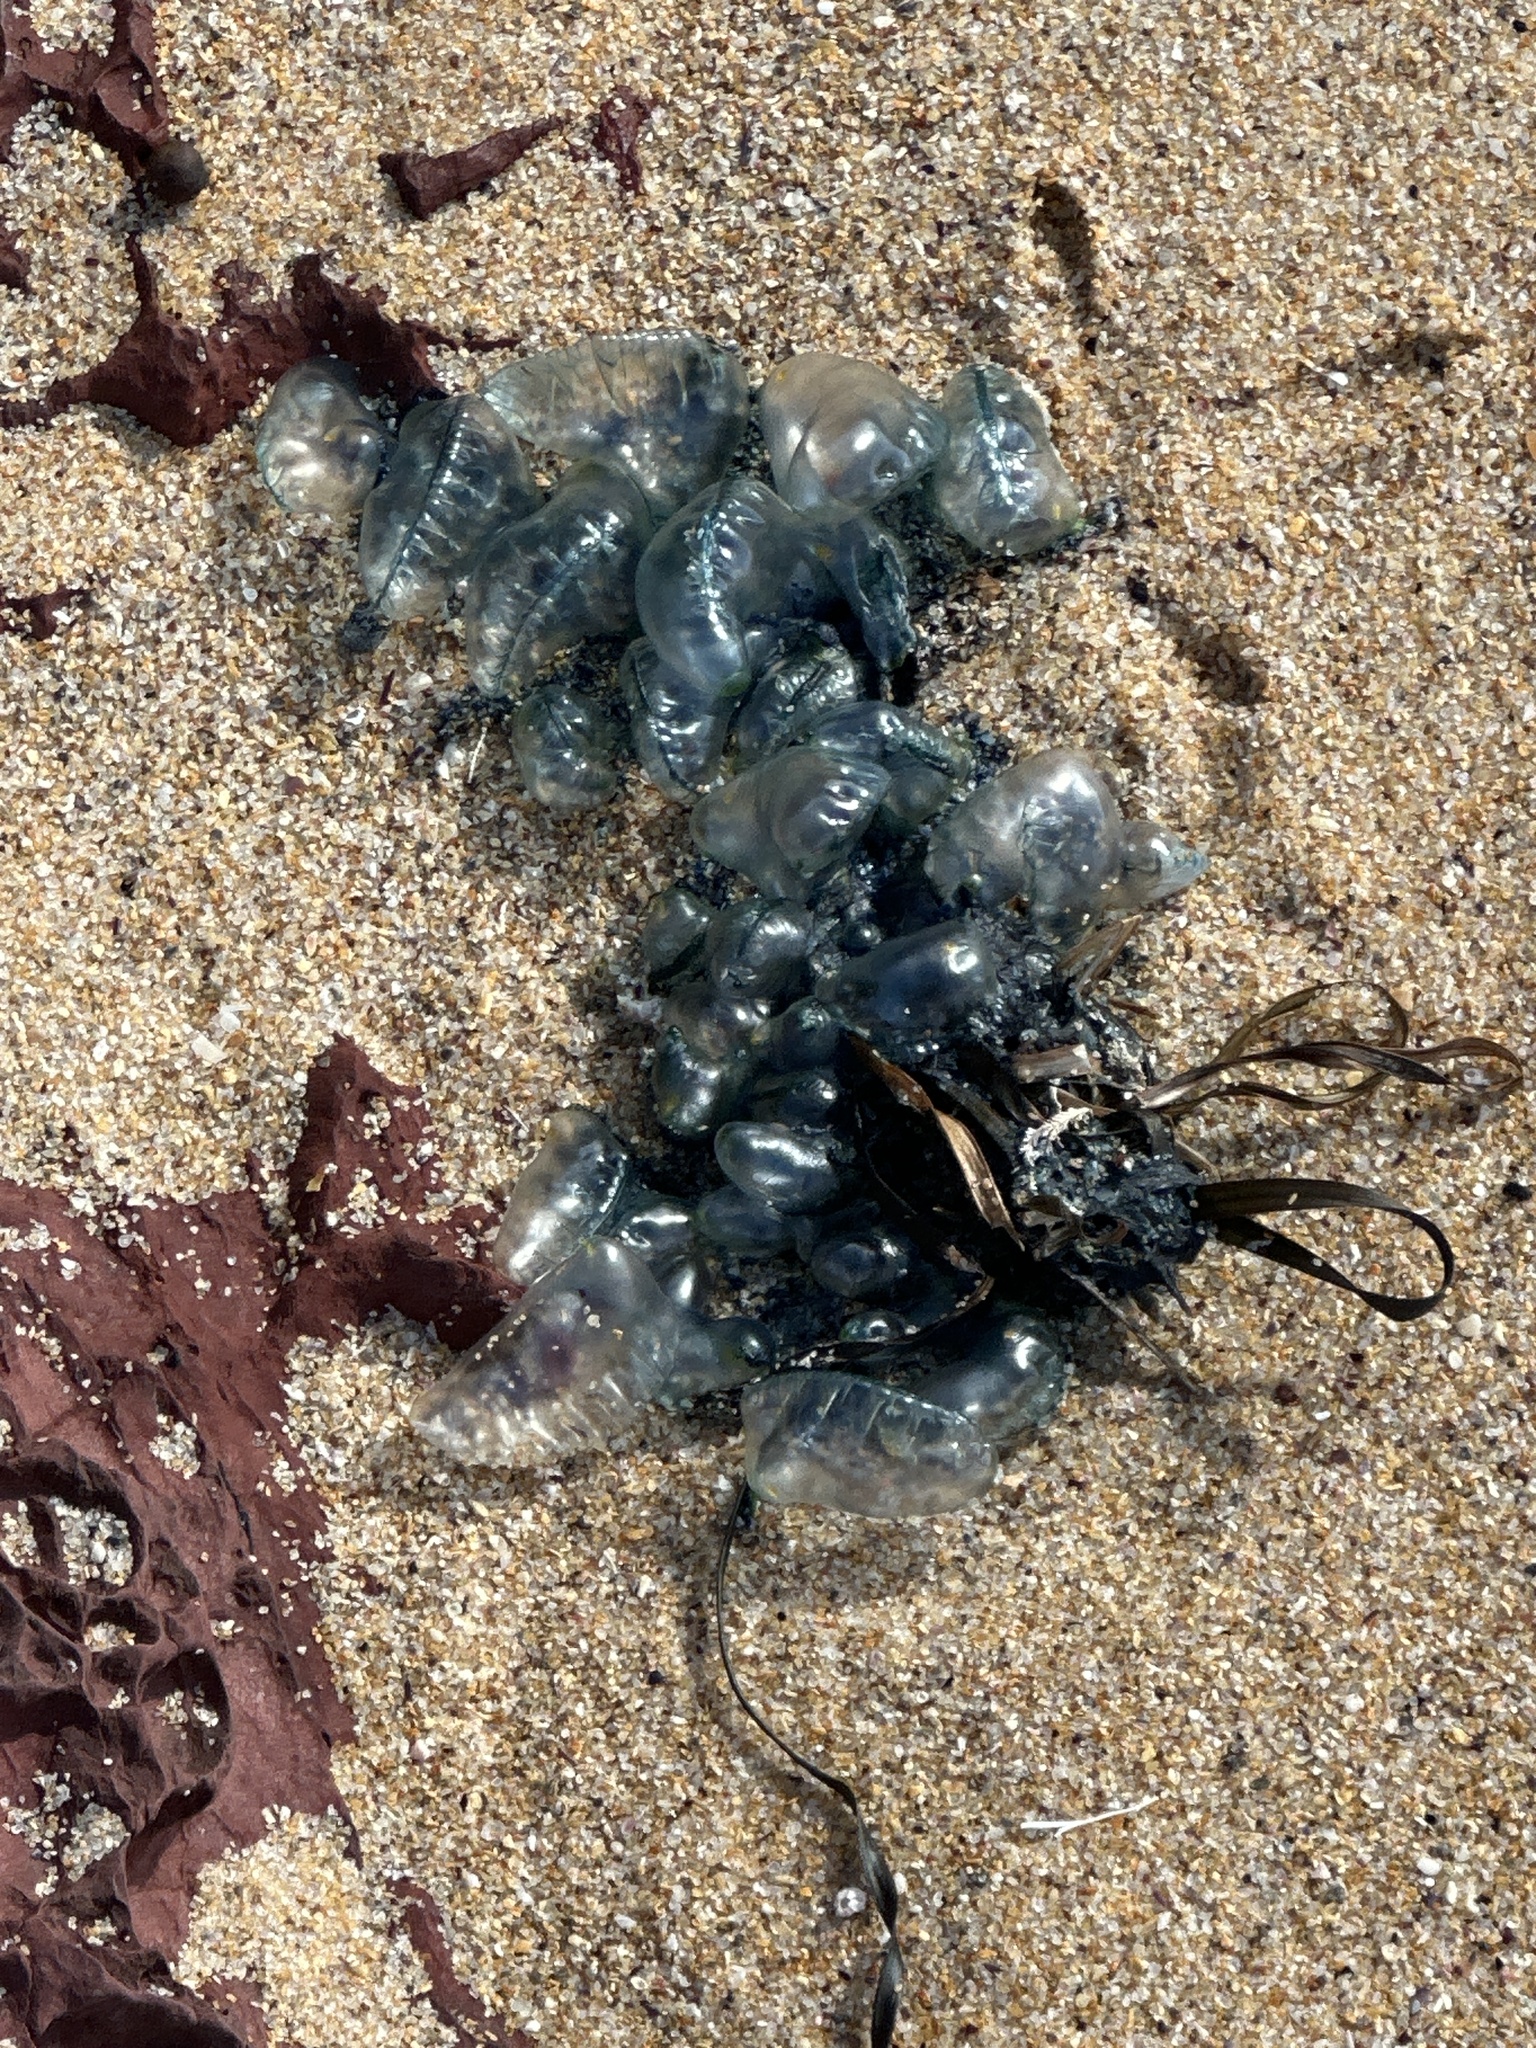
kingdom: Animalia
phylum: Cnidaria
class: Hydrozoa
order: Siphonophorae
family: Physaliidae
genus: Physalia
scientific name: Physalia physalis
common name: Portuguese man-of-war
